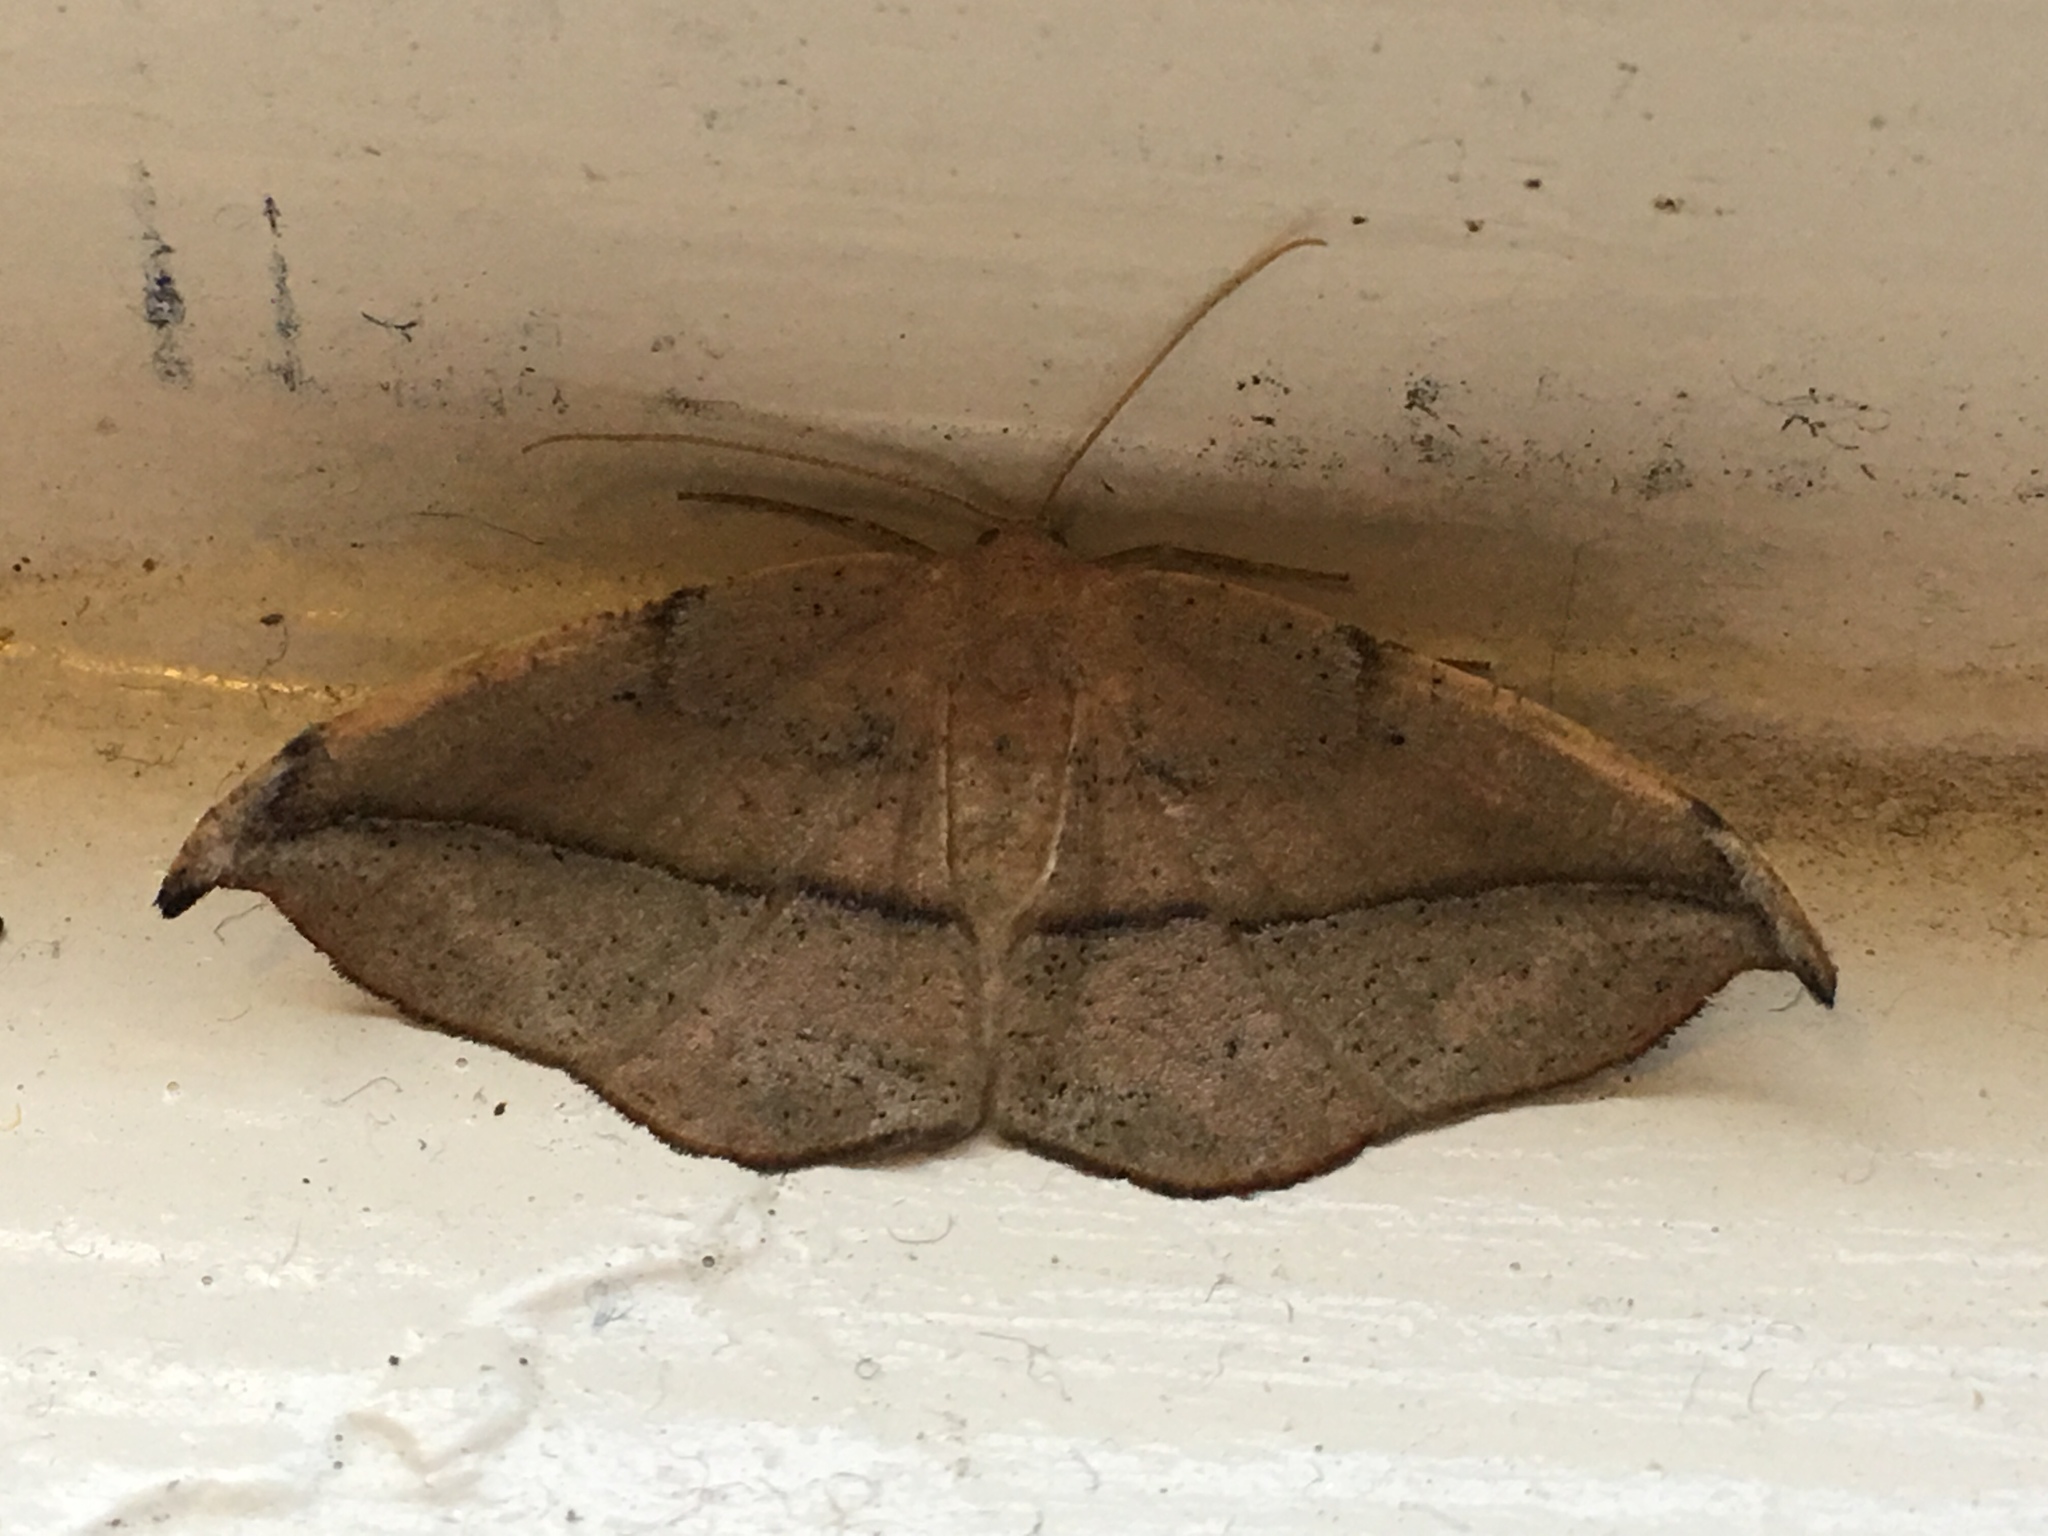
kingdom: Animalia
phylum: Arthropoda
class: Insecta
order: Lepidoptera
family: Geometridae
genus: Patalene
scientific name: Patalene olyzonaria
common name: Juniper geometer moth
